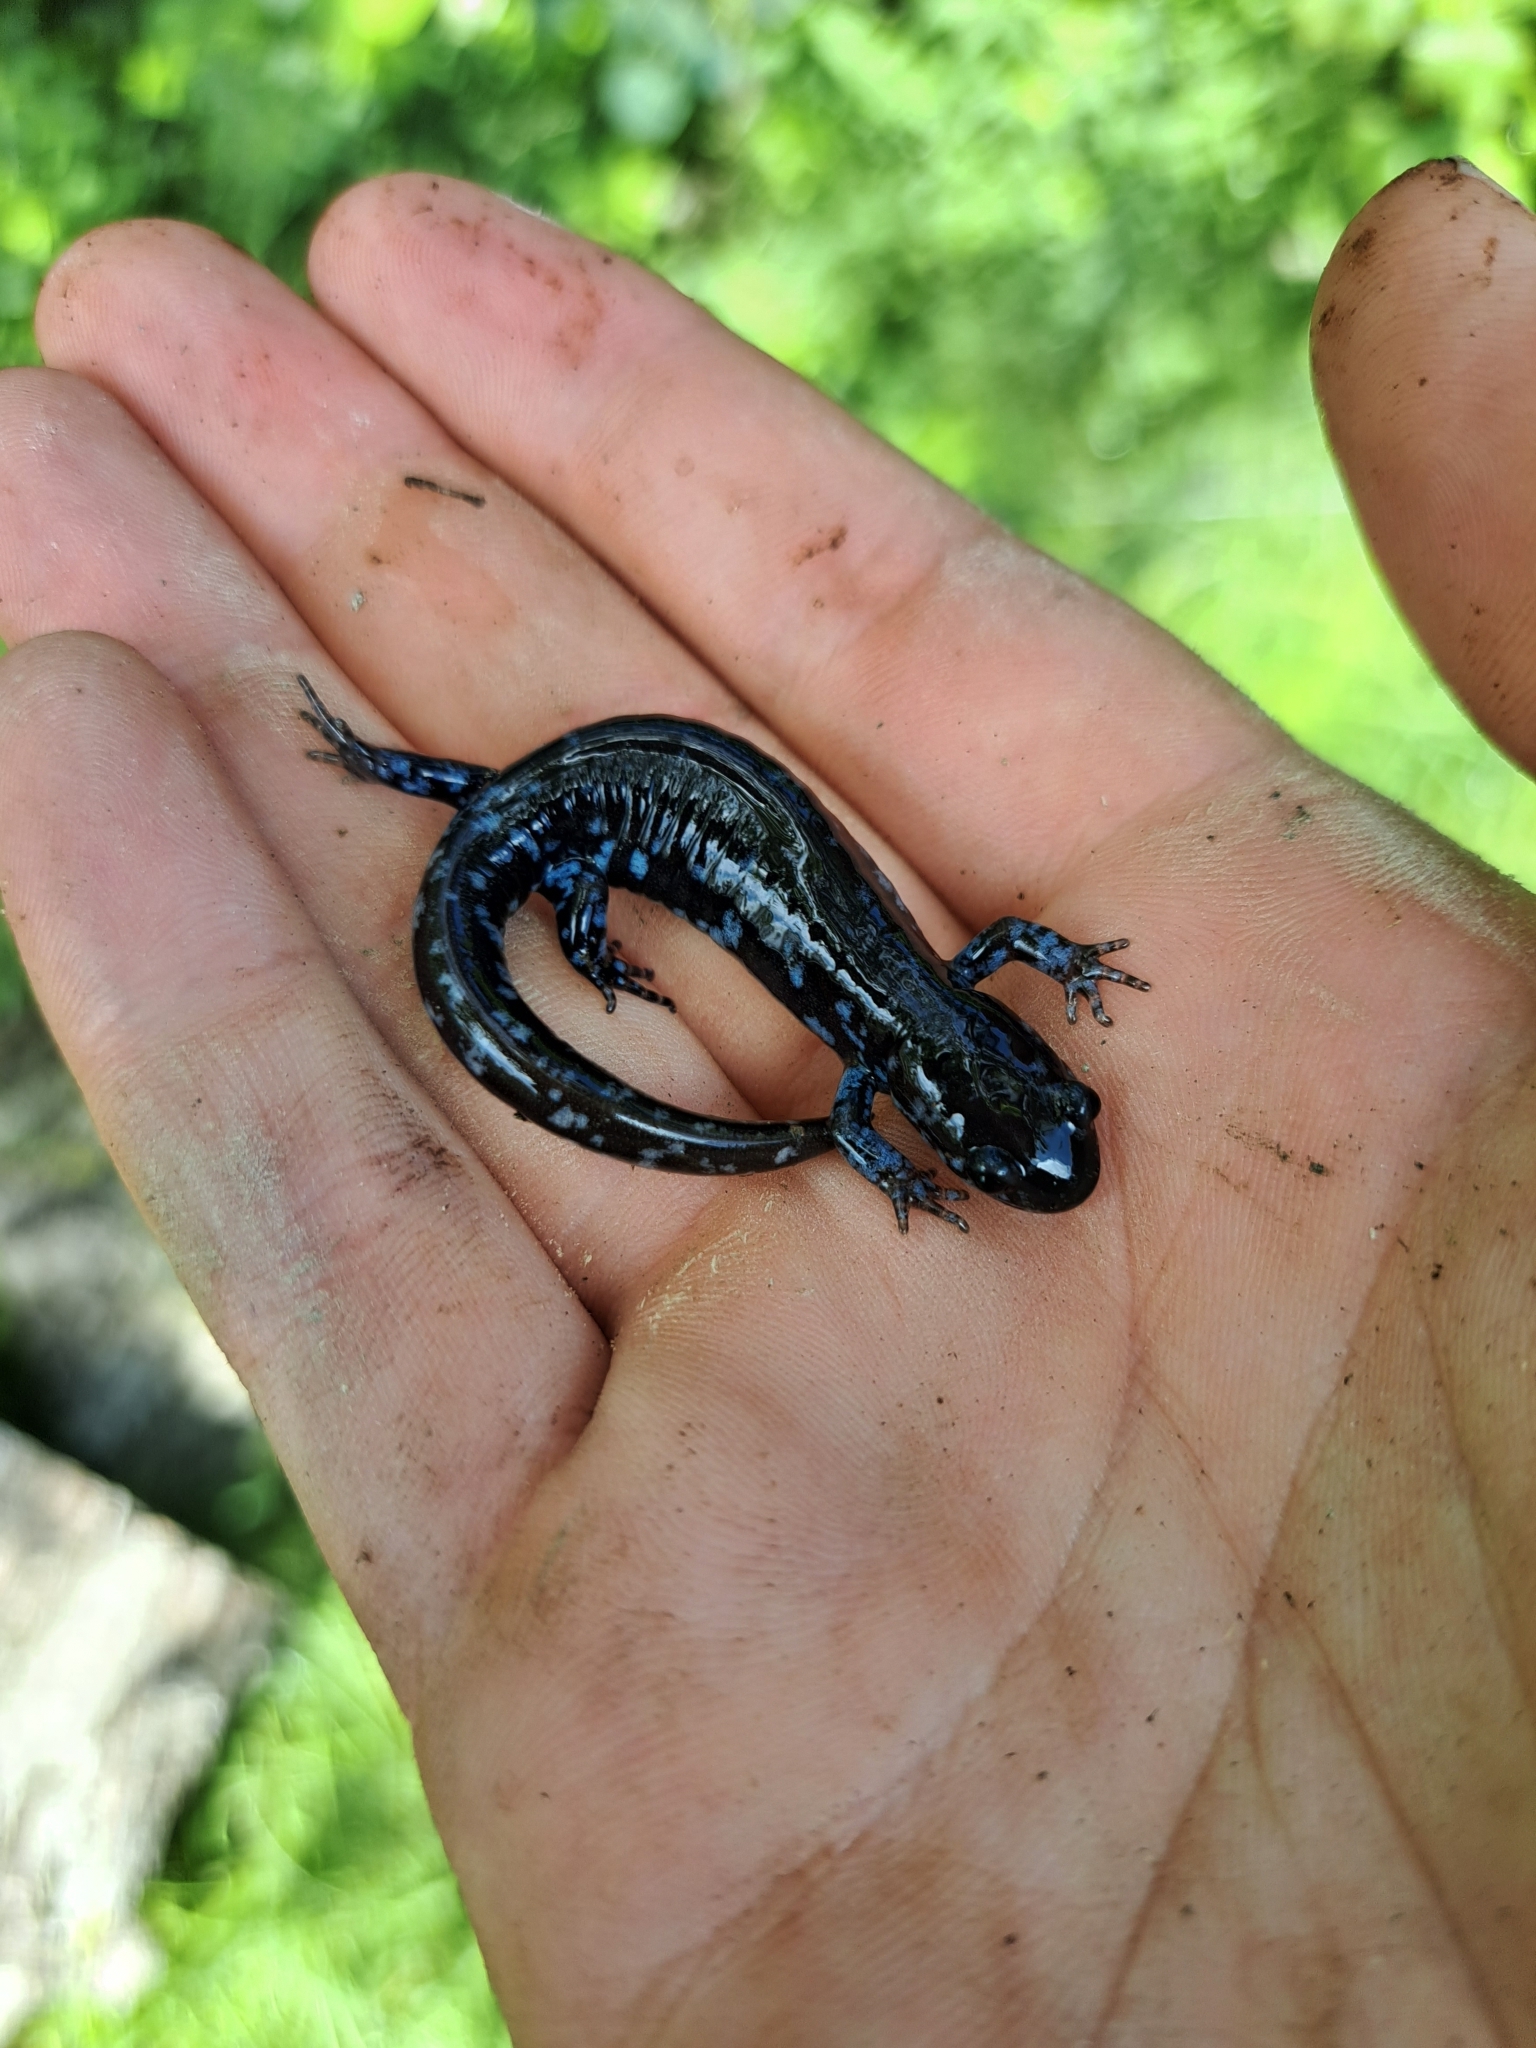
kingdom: Animalia
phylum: Chordata
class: Amphibia
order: Caudata
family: Ambystomatidae
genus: Ambystoma
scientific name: Ambystoma laterale
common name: Blue-spotted salamander
